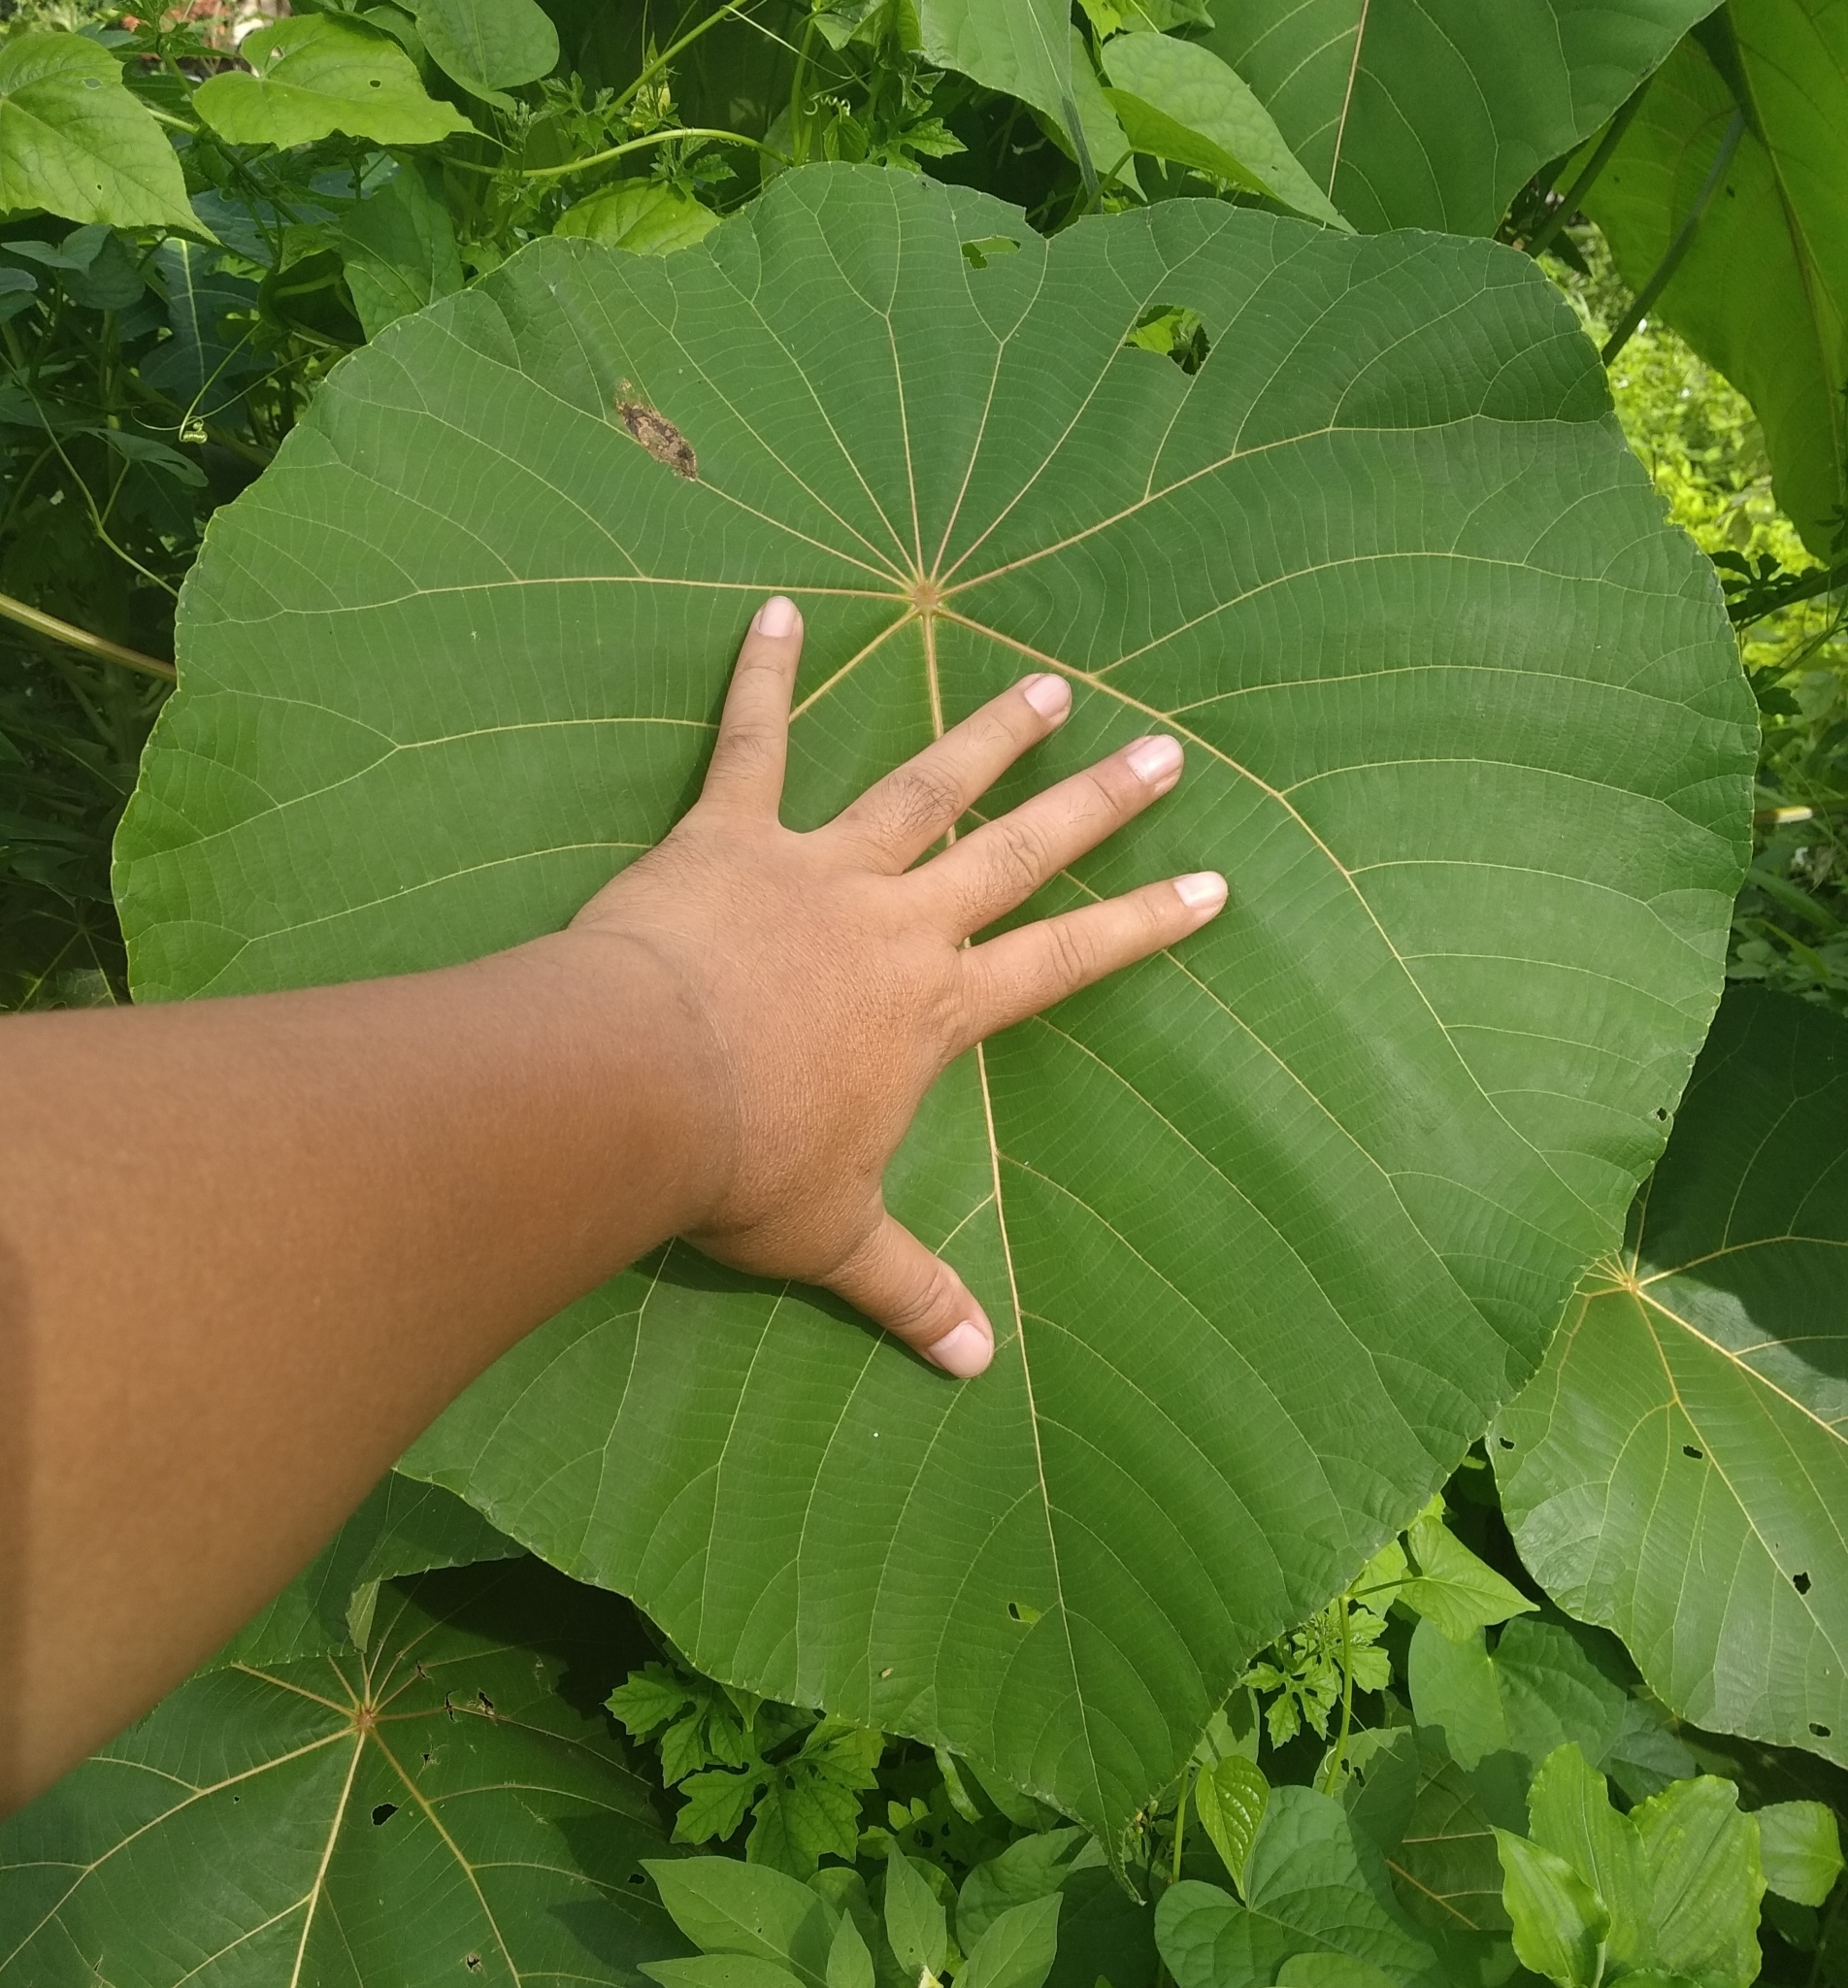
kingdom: Plantae
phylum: Tracheophyta
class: Magnoliopsida
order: Malpighiales
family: Euphorbiaceae
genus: Macaranga
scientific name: Macaranga tanarius
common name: Parasol leaf tree
